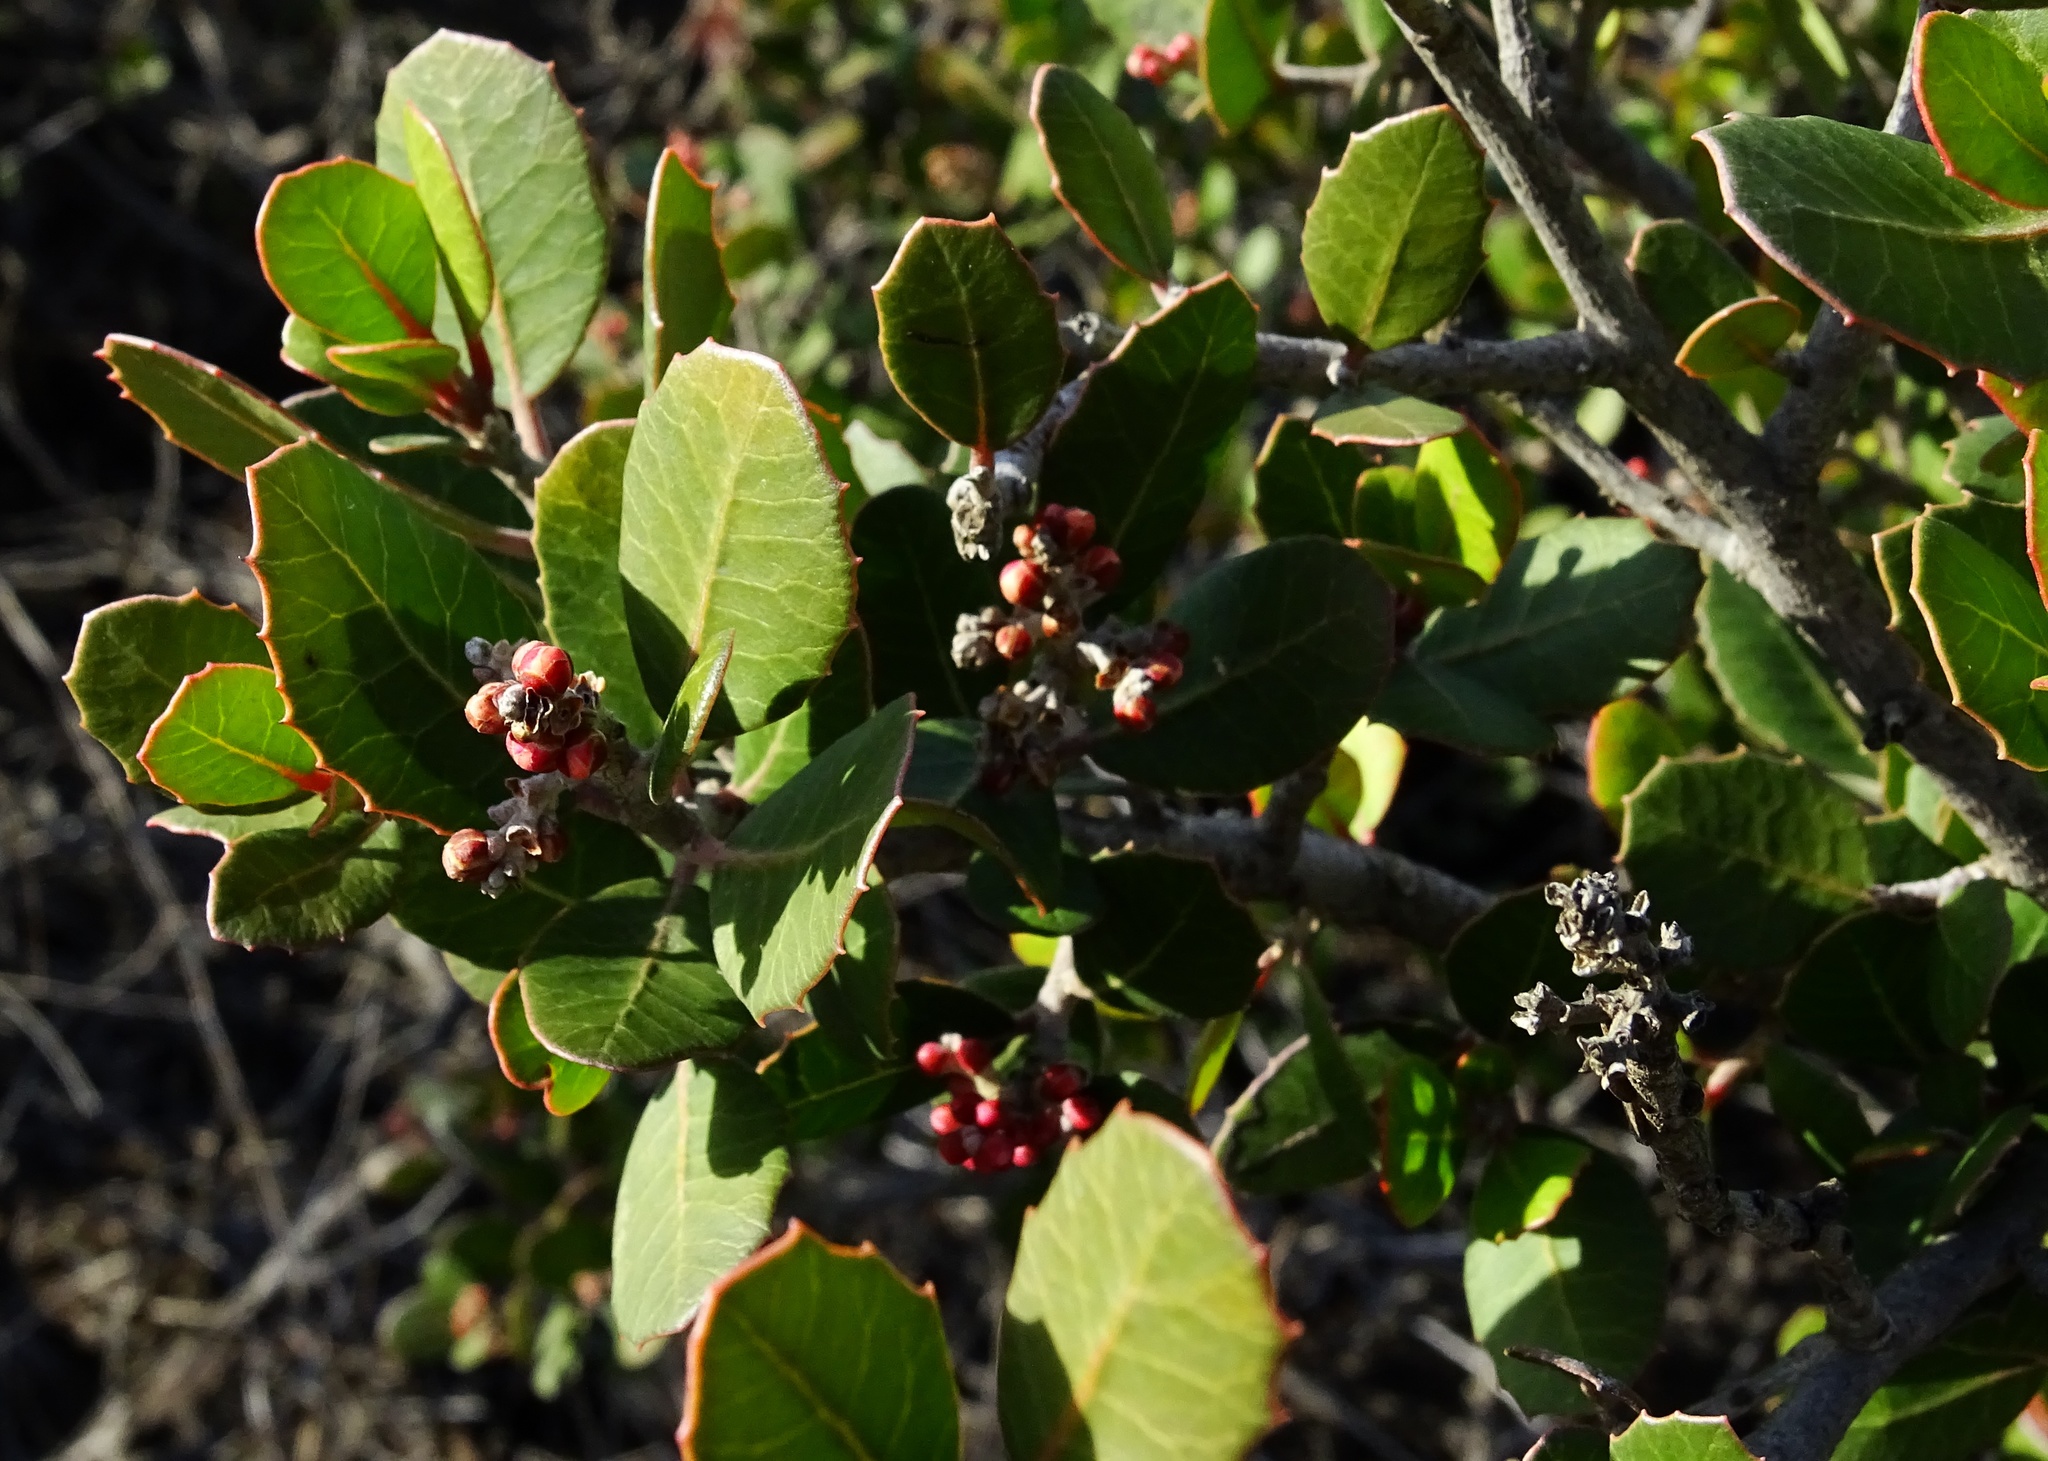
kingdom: Plantae
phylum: Tracheophyta
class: Magnoliopsida
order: Sapindales
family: Anacardiaceae
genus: Rhus
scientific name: Rhus integrifolia
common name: Lemonade sumac
